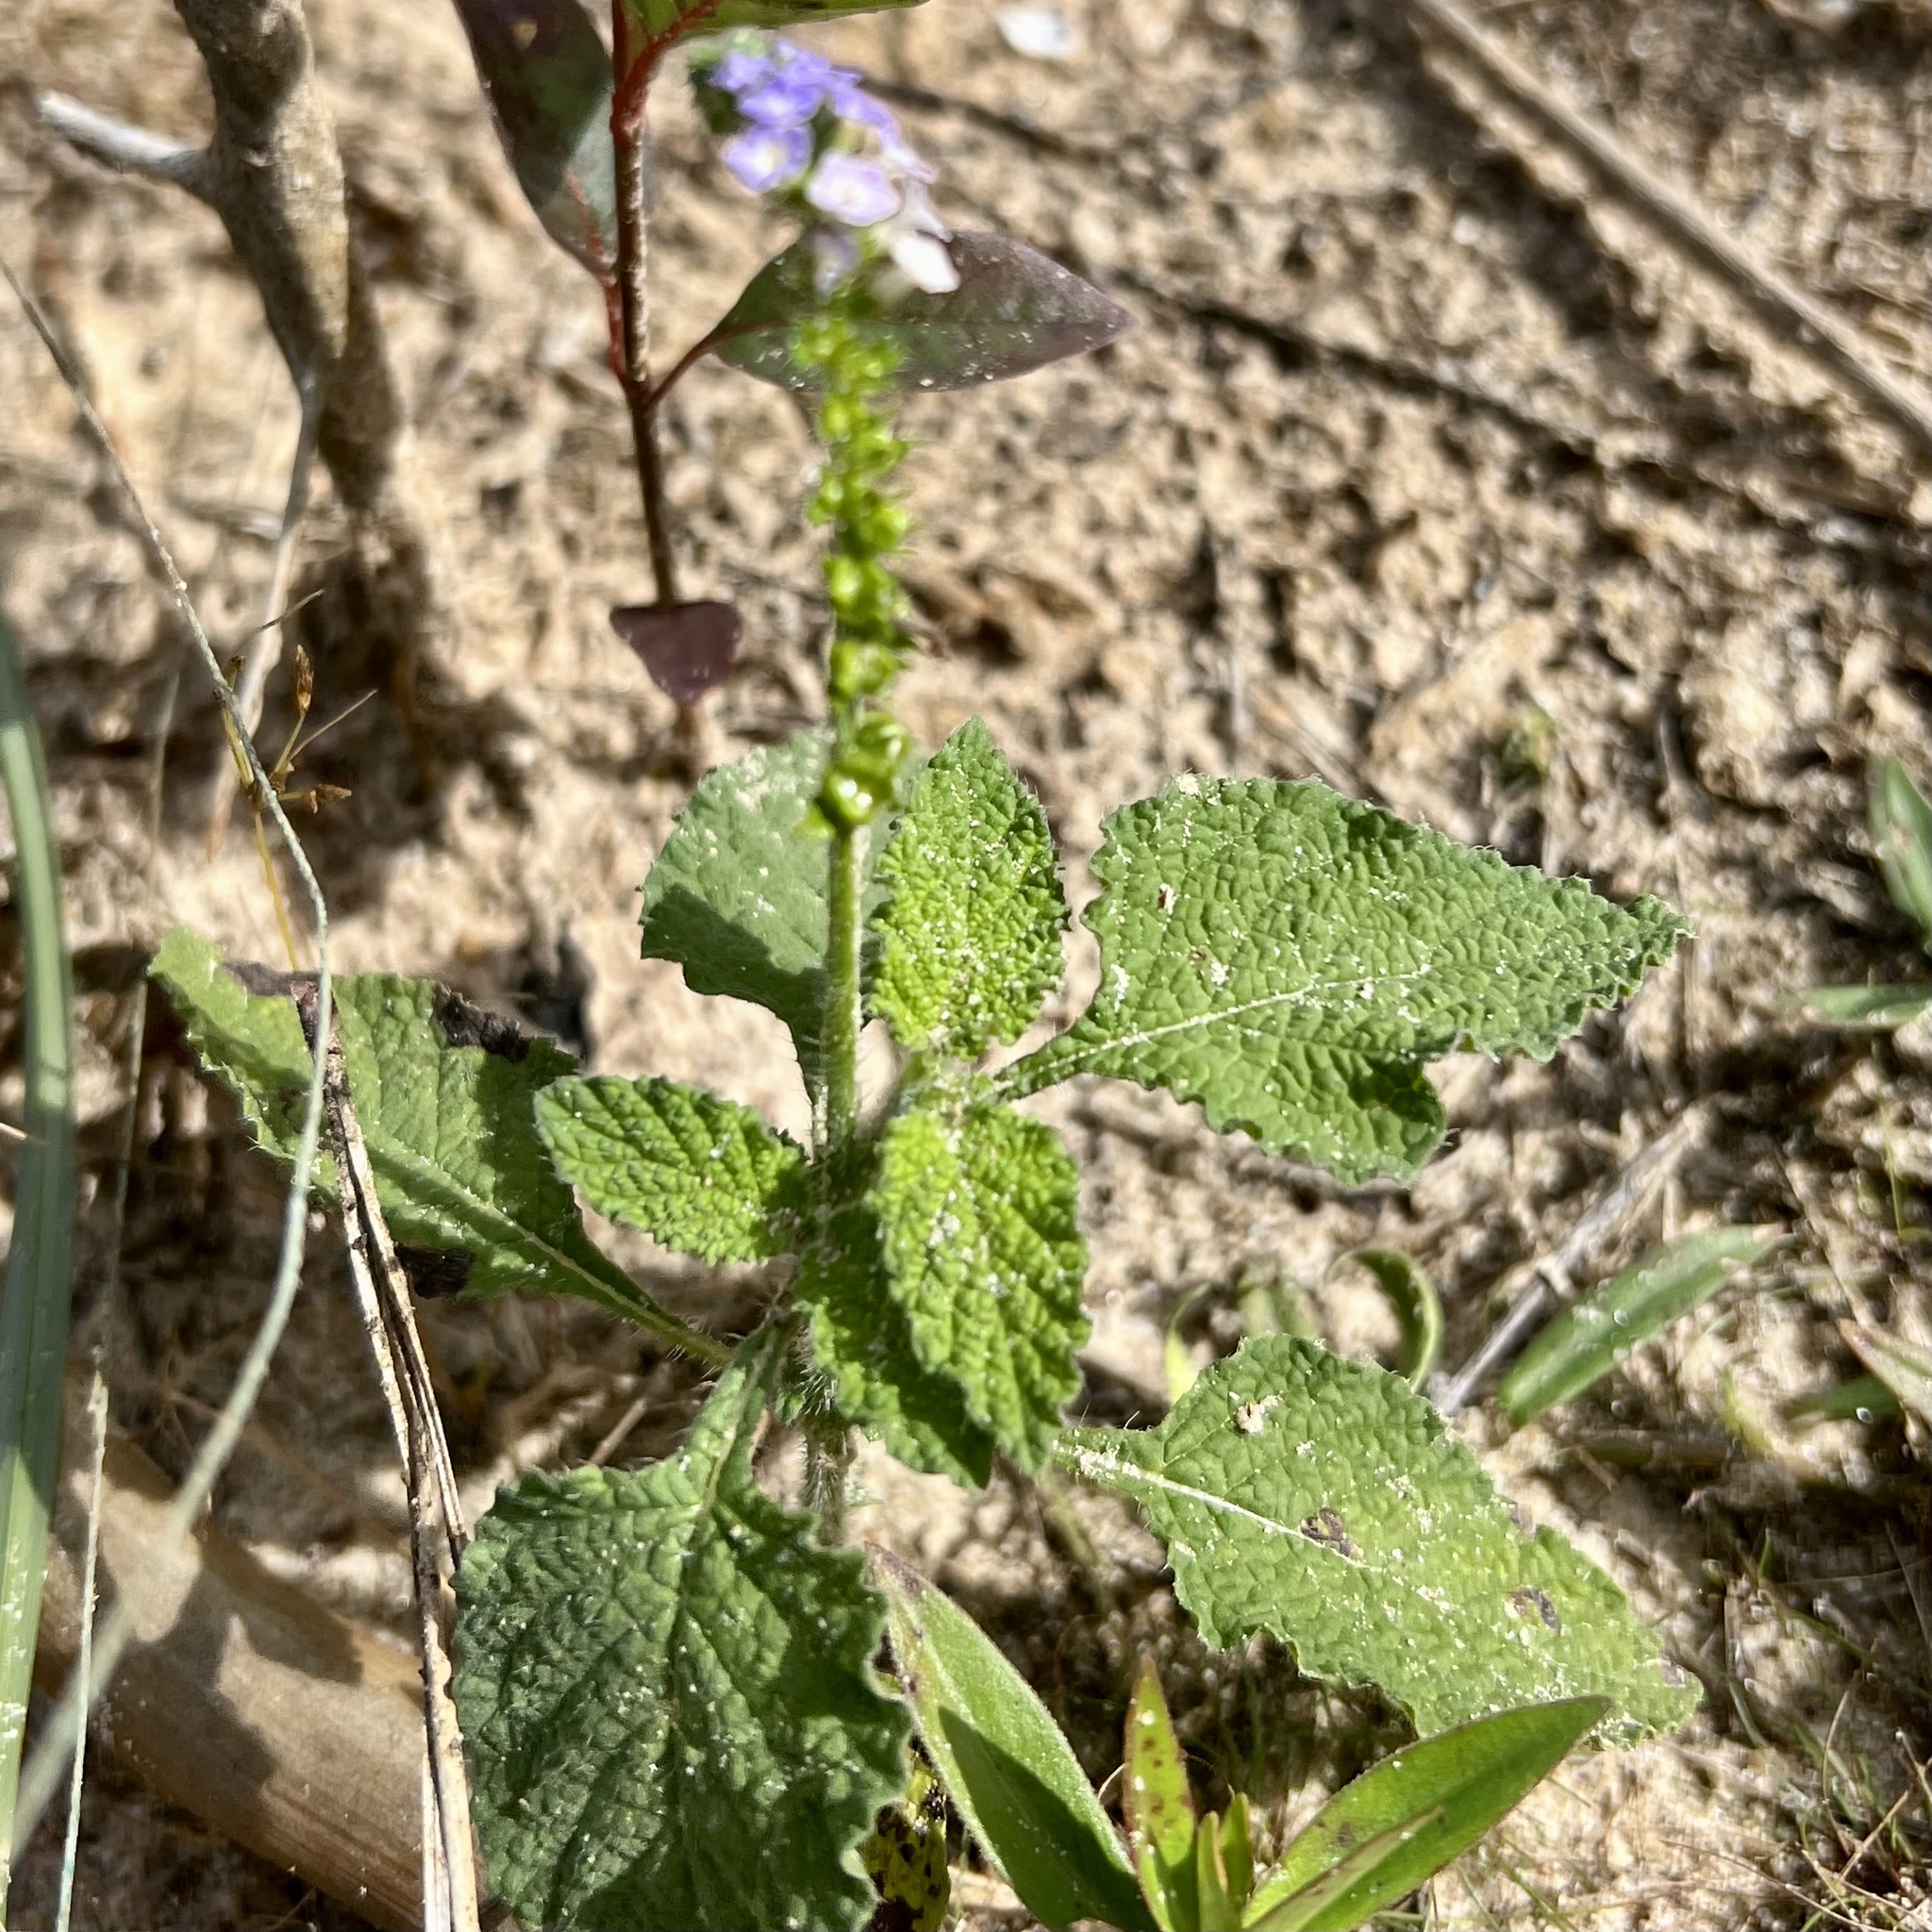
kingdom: Plantae
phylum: Tracheophyta
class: Magnoliopsida
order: Boraginales
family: Heliotropiaceae
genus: Heliotropium
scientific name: Heliotropium indicum
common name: Indian heliotrope
